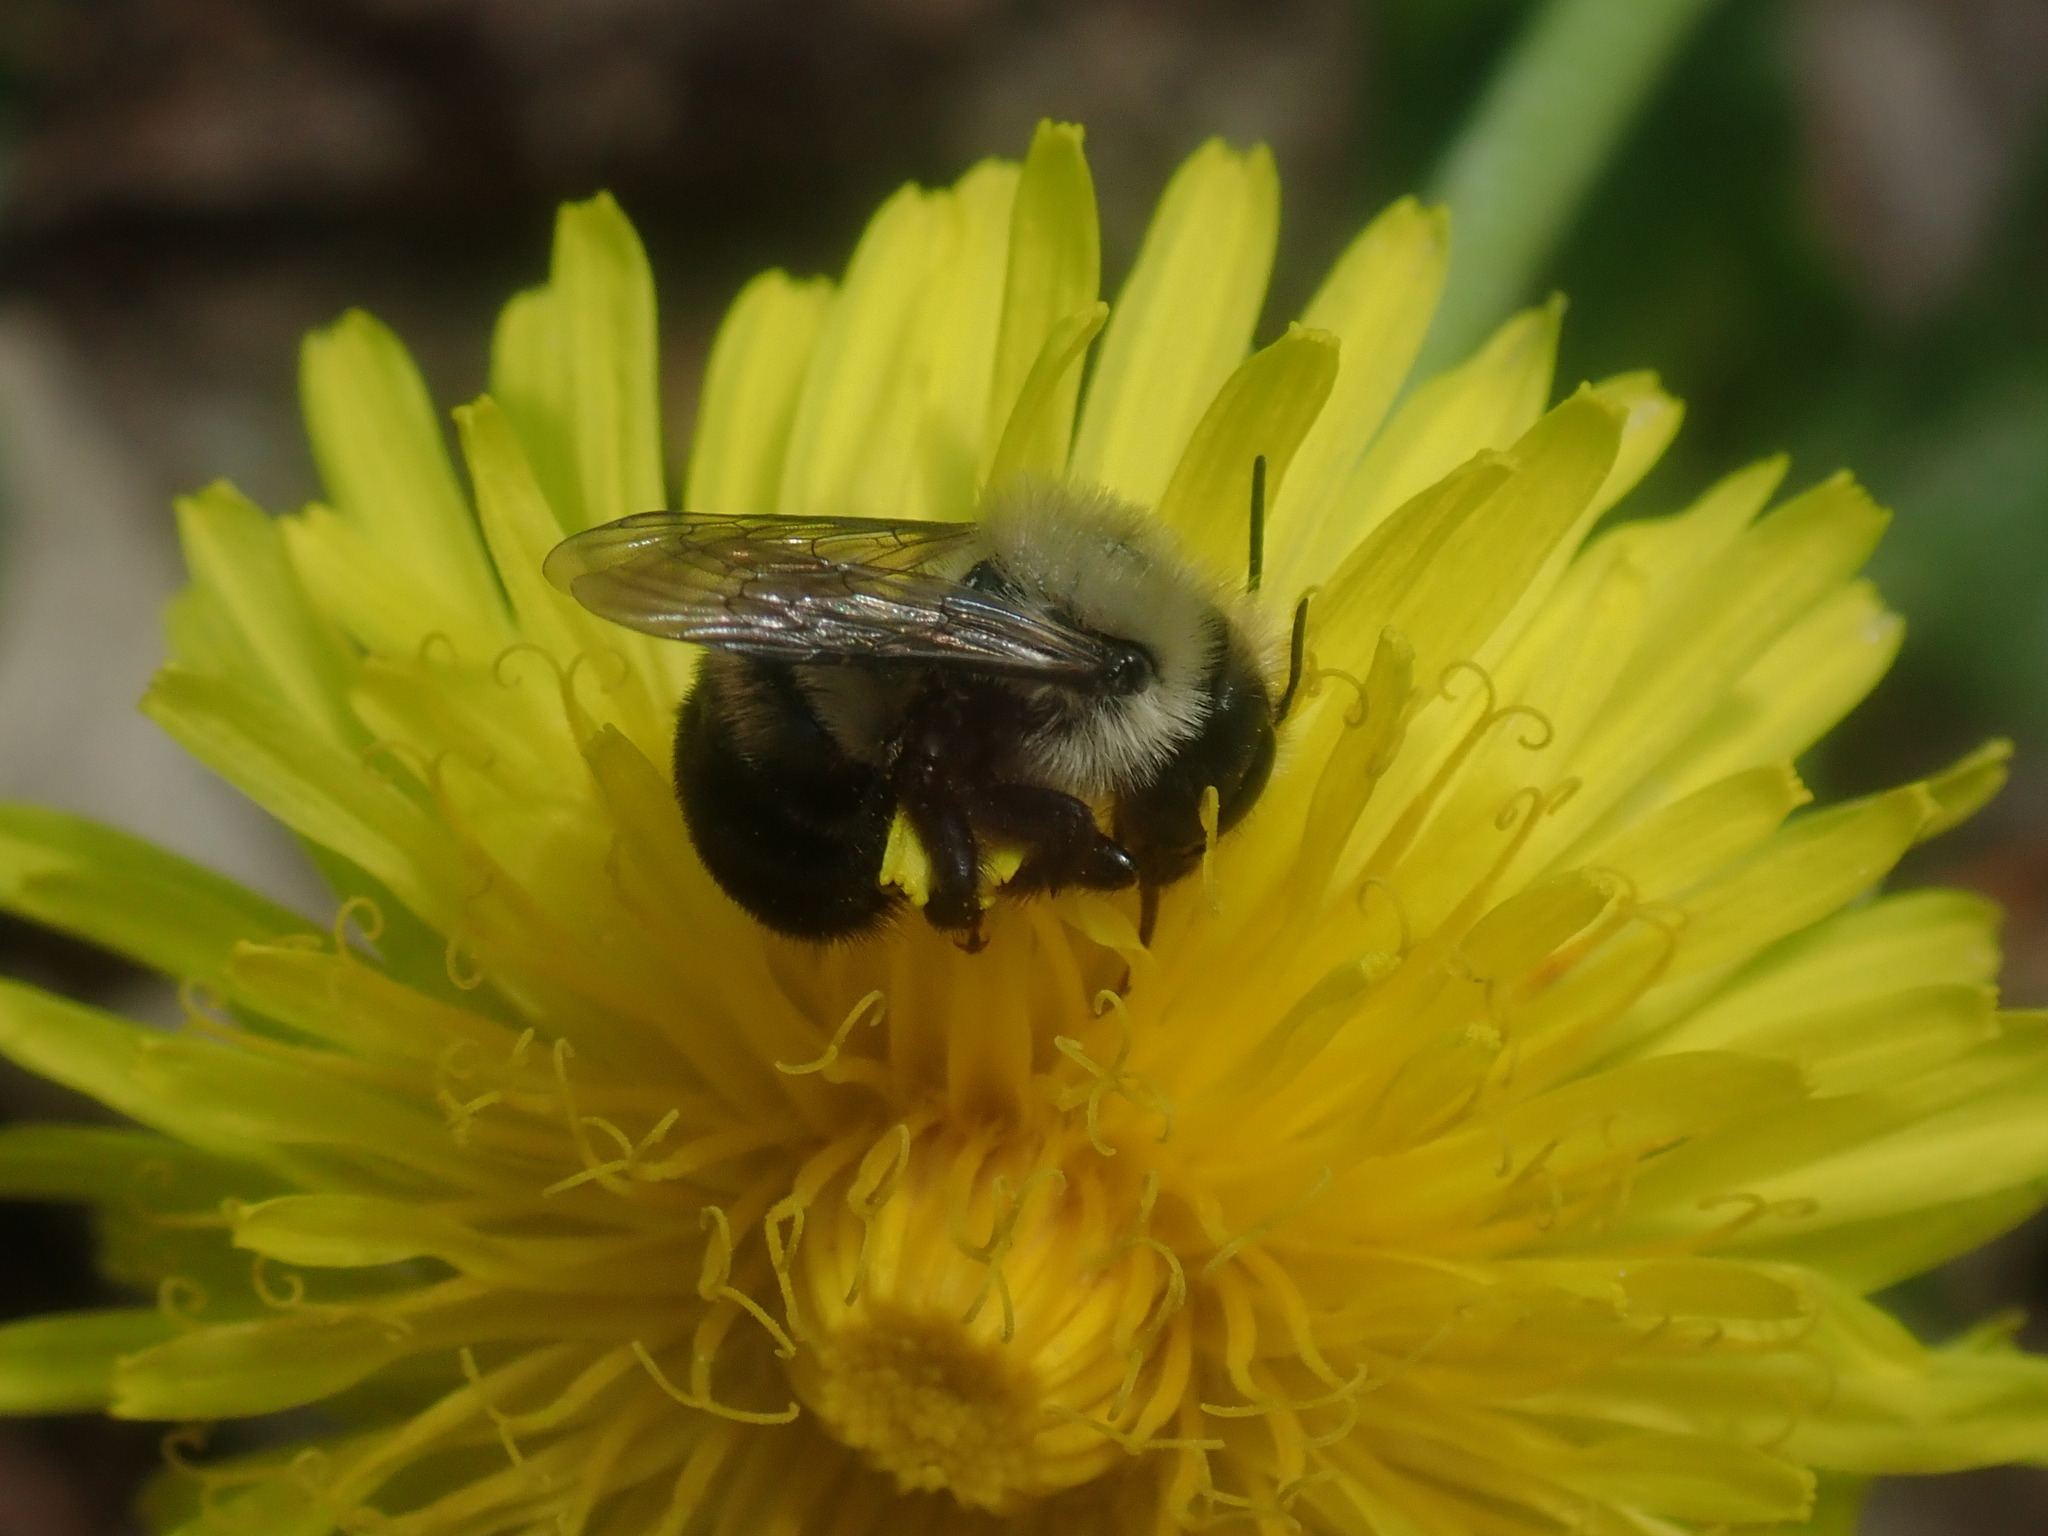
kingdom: Animalia
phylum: Arthropoda
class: Insecta
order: Hymenoptera
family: Megachilidae
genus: Osmia
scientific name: Osmia bucephala
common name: Bufflehead mason bee
